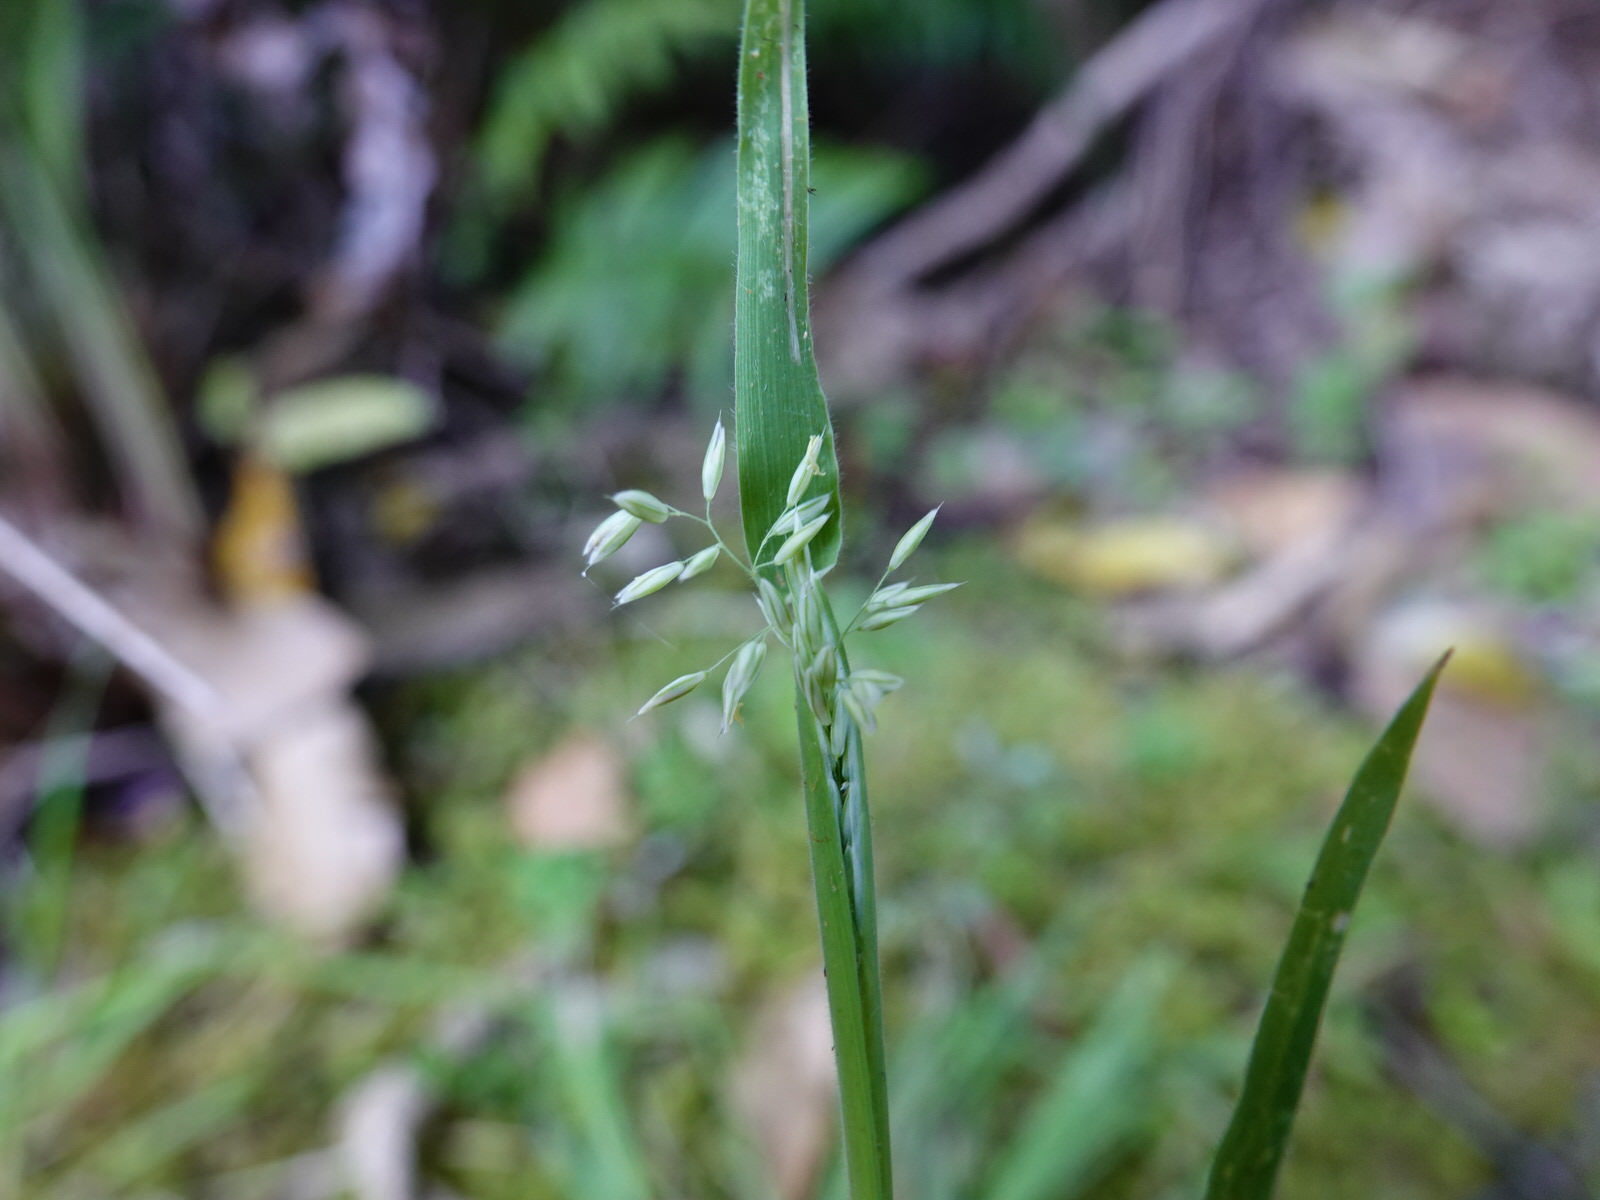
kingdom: Plantae
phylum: Tracheophyta
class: Liliopsida
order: Poales
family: Poaceae
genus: Holcus
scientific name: Holcus lanatus
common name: Yorkshire-fog
